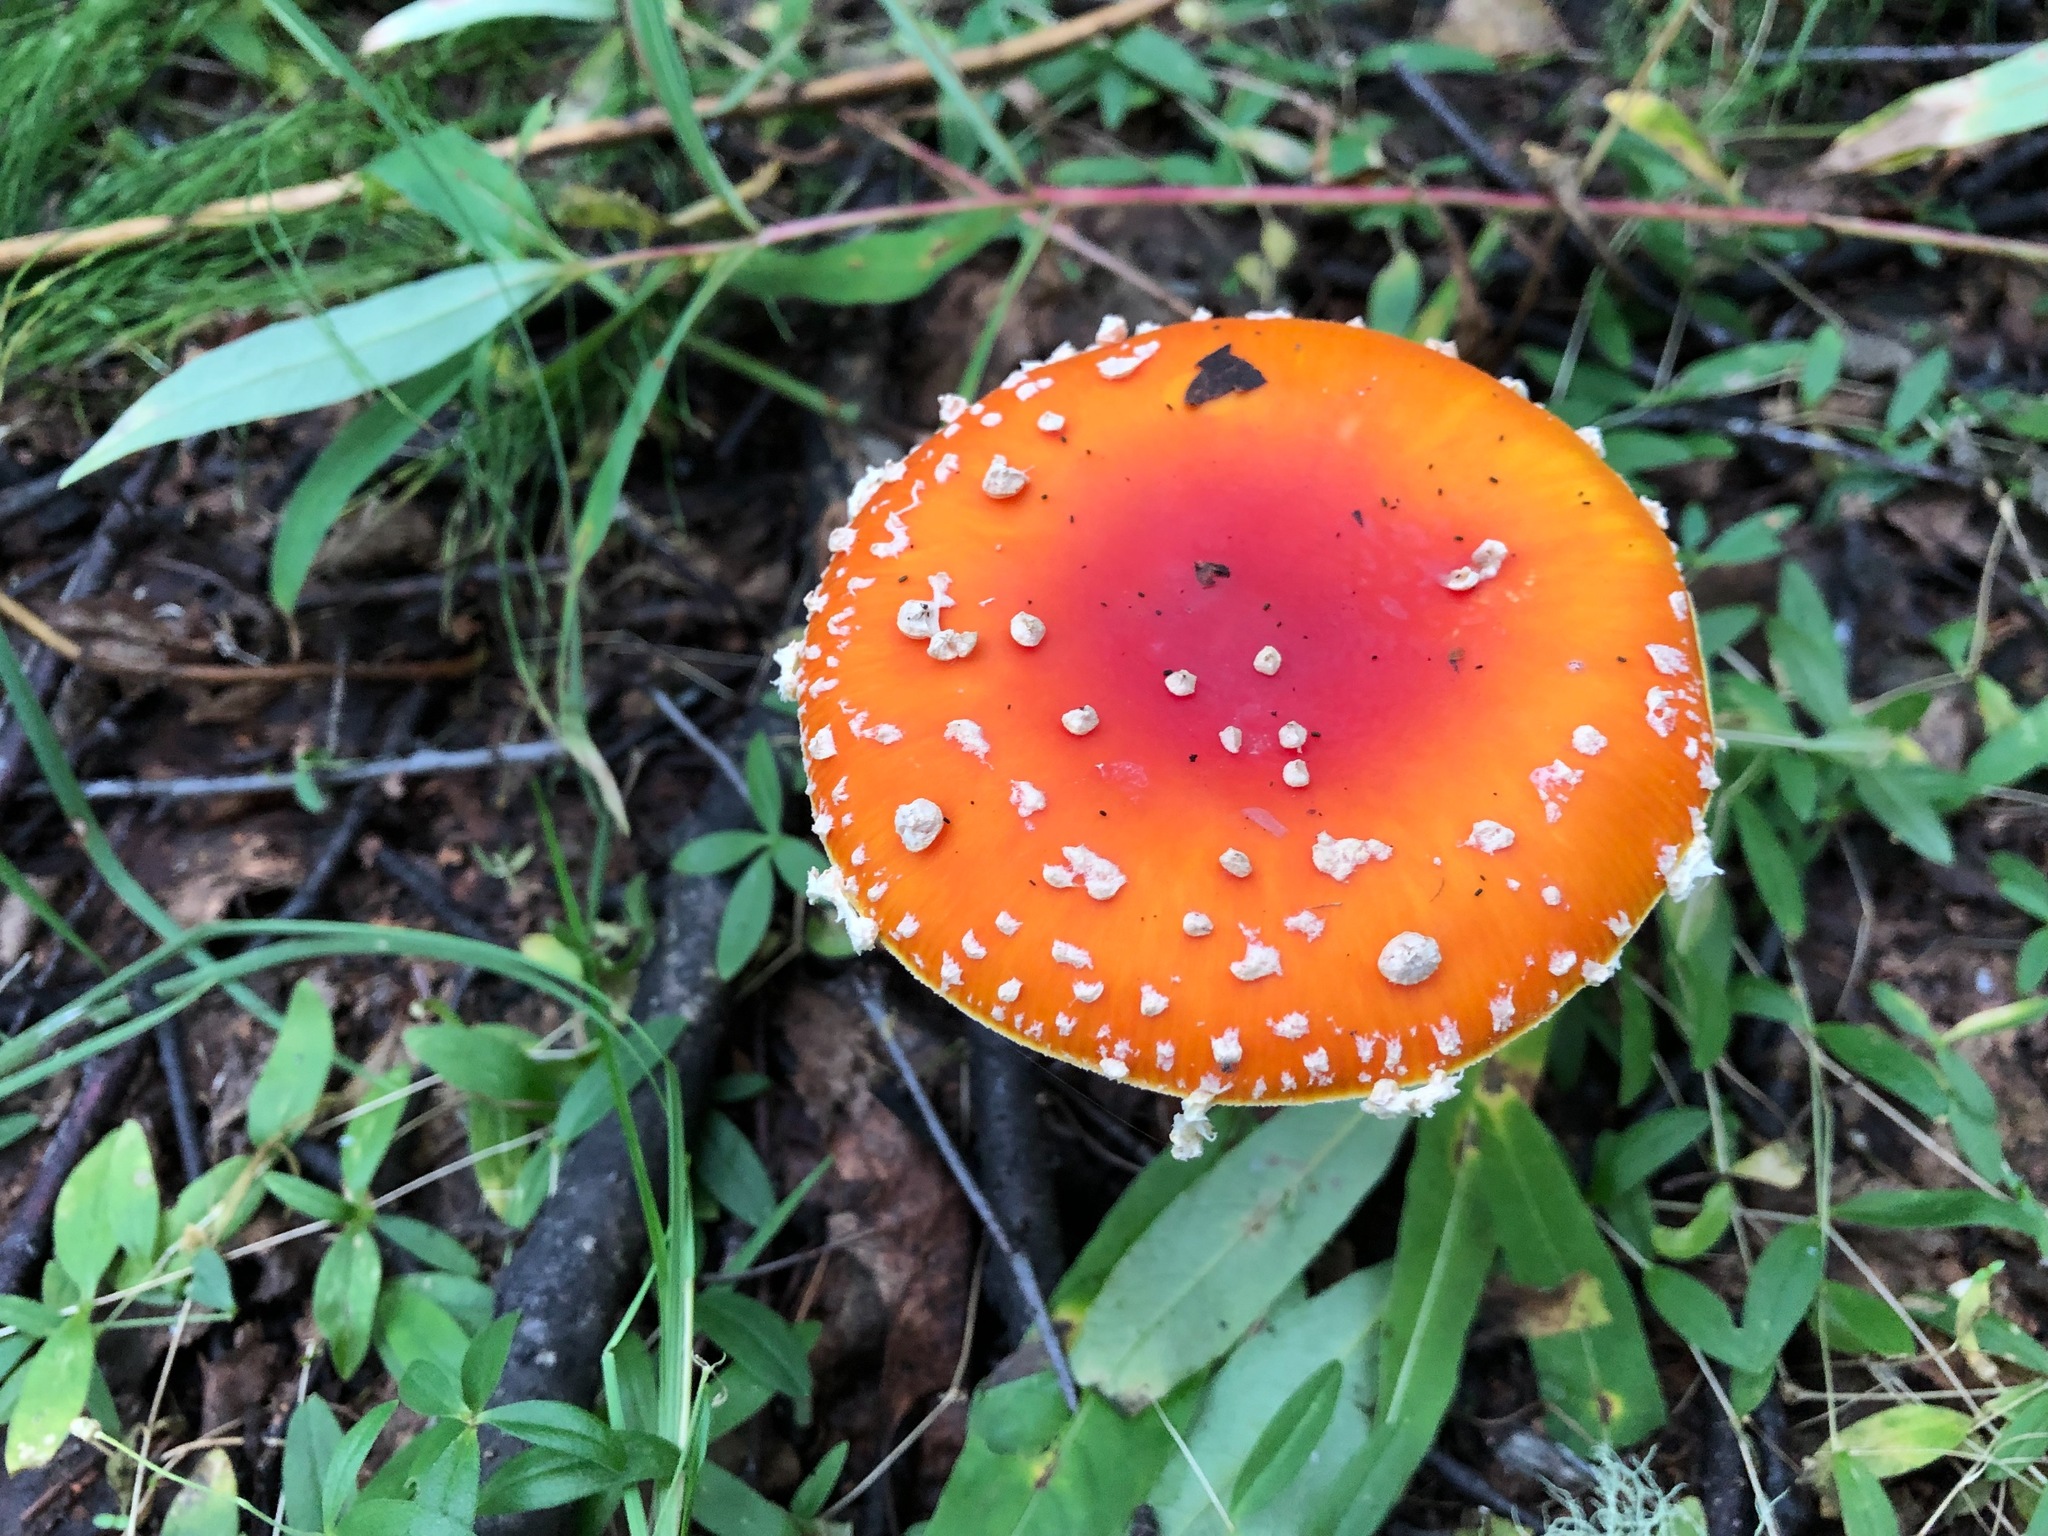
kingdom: Fungi
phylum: Basidiomycota
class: Agaricomycetes
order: Agaricales
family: Amanitaceae
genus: Amanita
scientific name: Amanita muscaria
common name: Fly agaric
